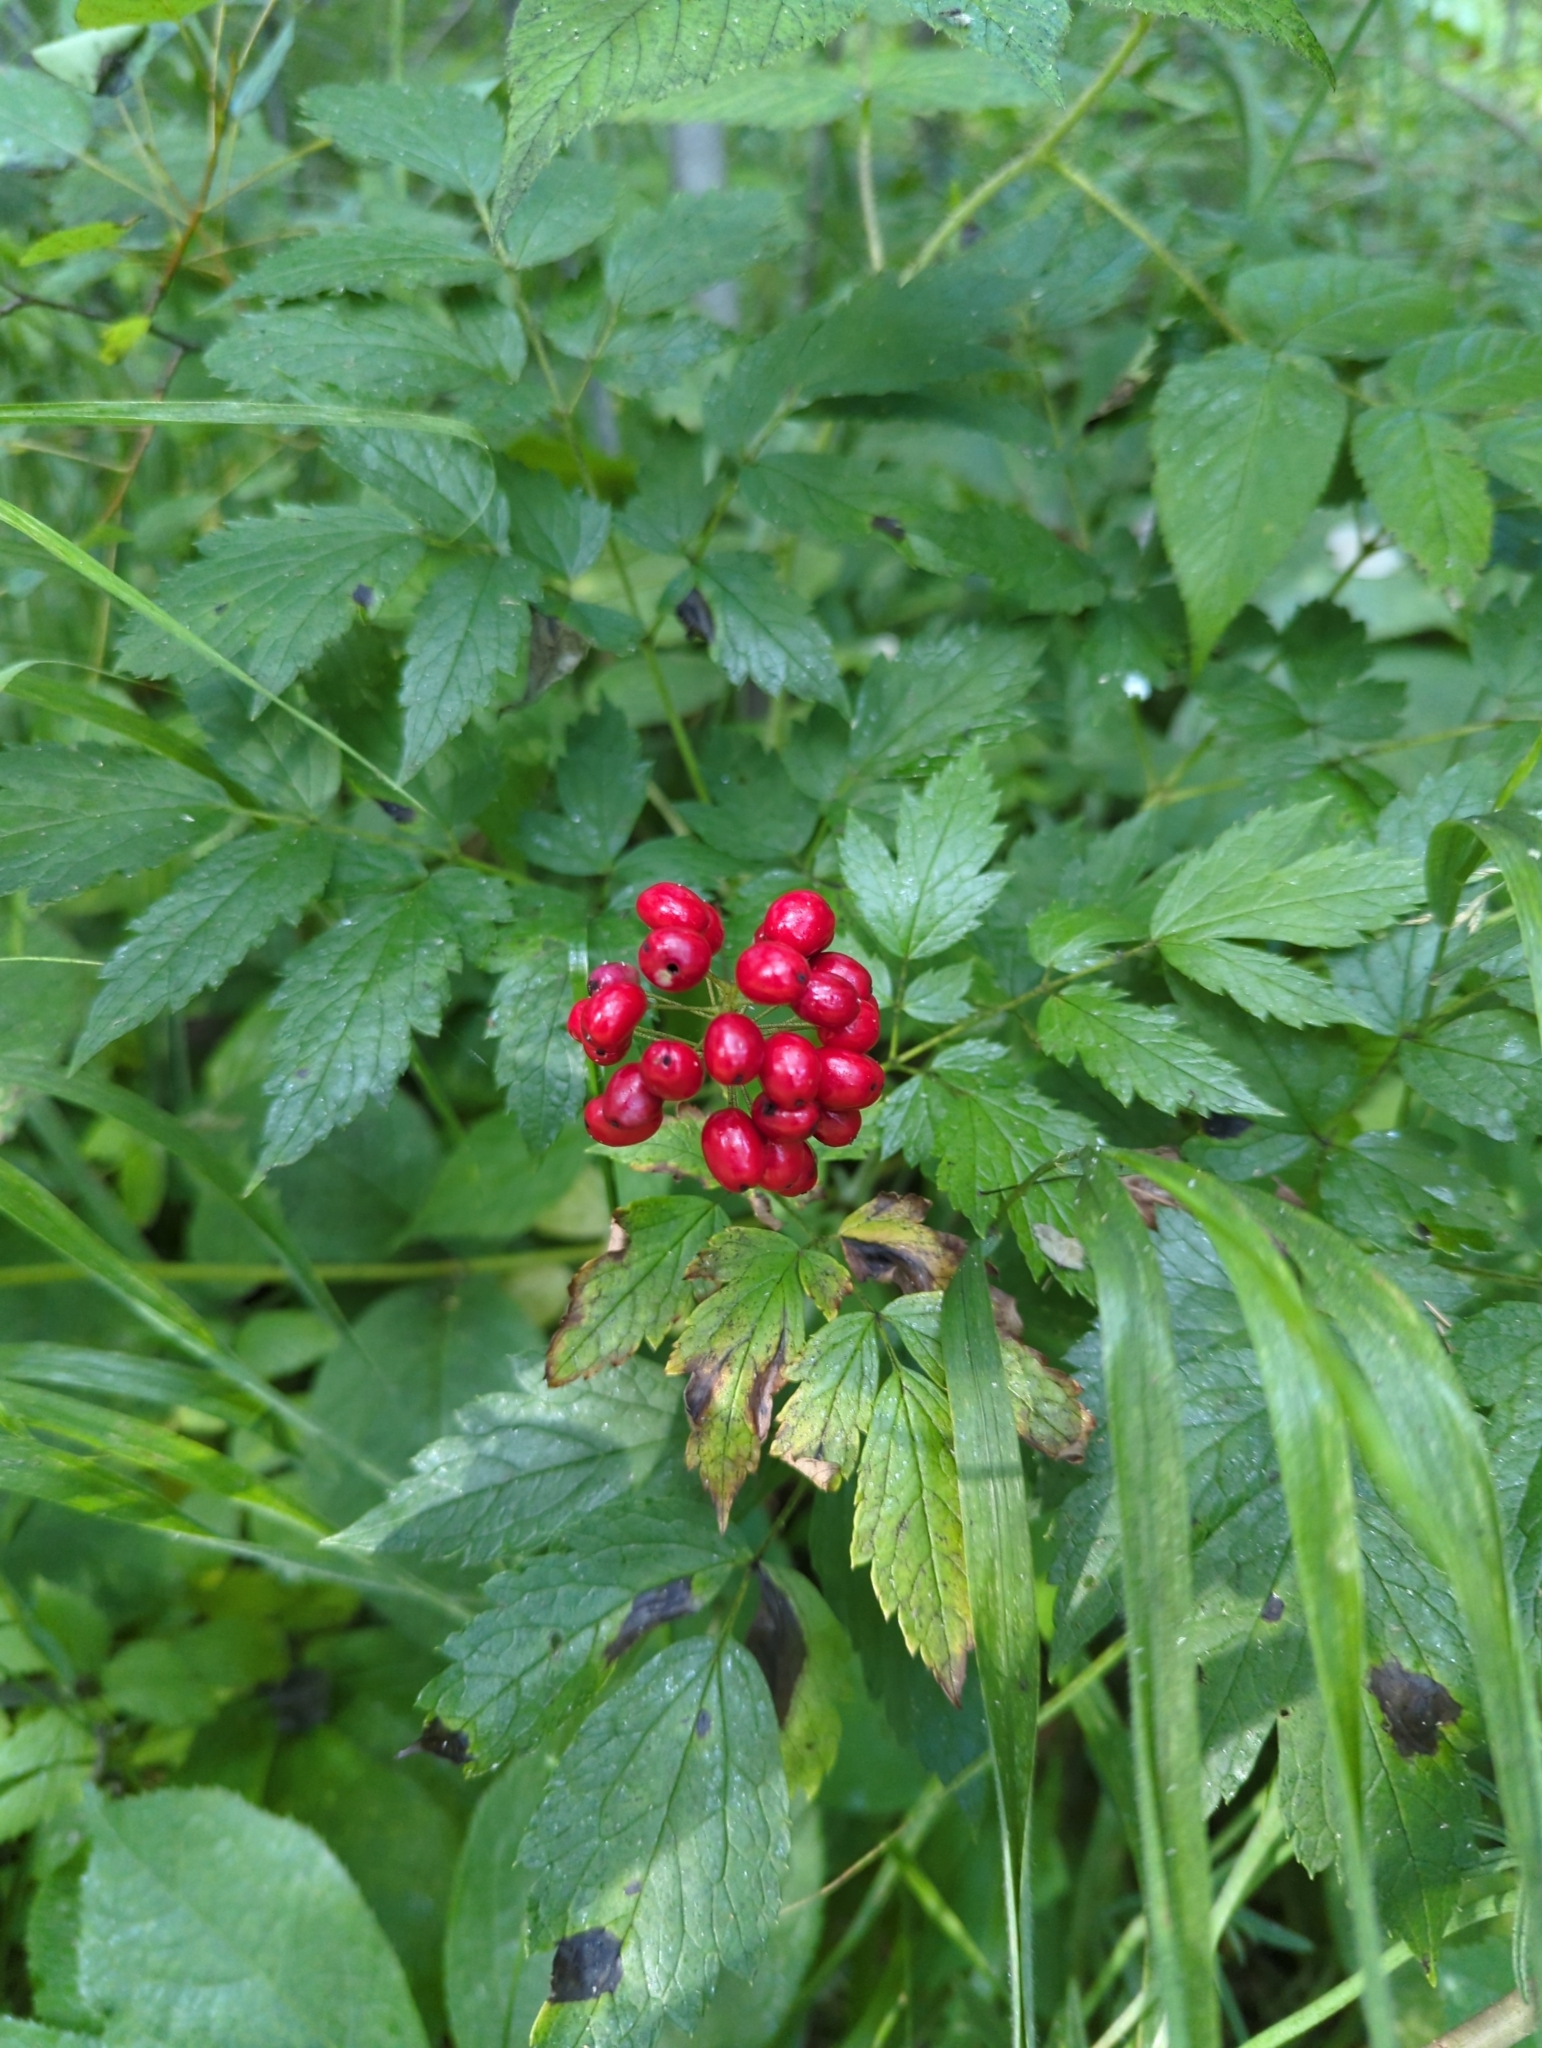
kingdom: Plantae
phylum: Tracheophyta
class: Magnoliopsida
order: Ranunculales
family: Ranunculaceae
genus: Actaea
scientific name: Actaea rubra
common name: Red baneberry
